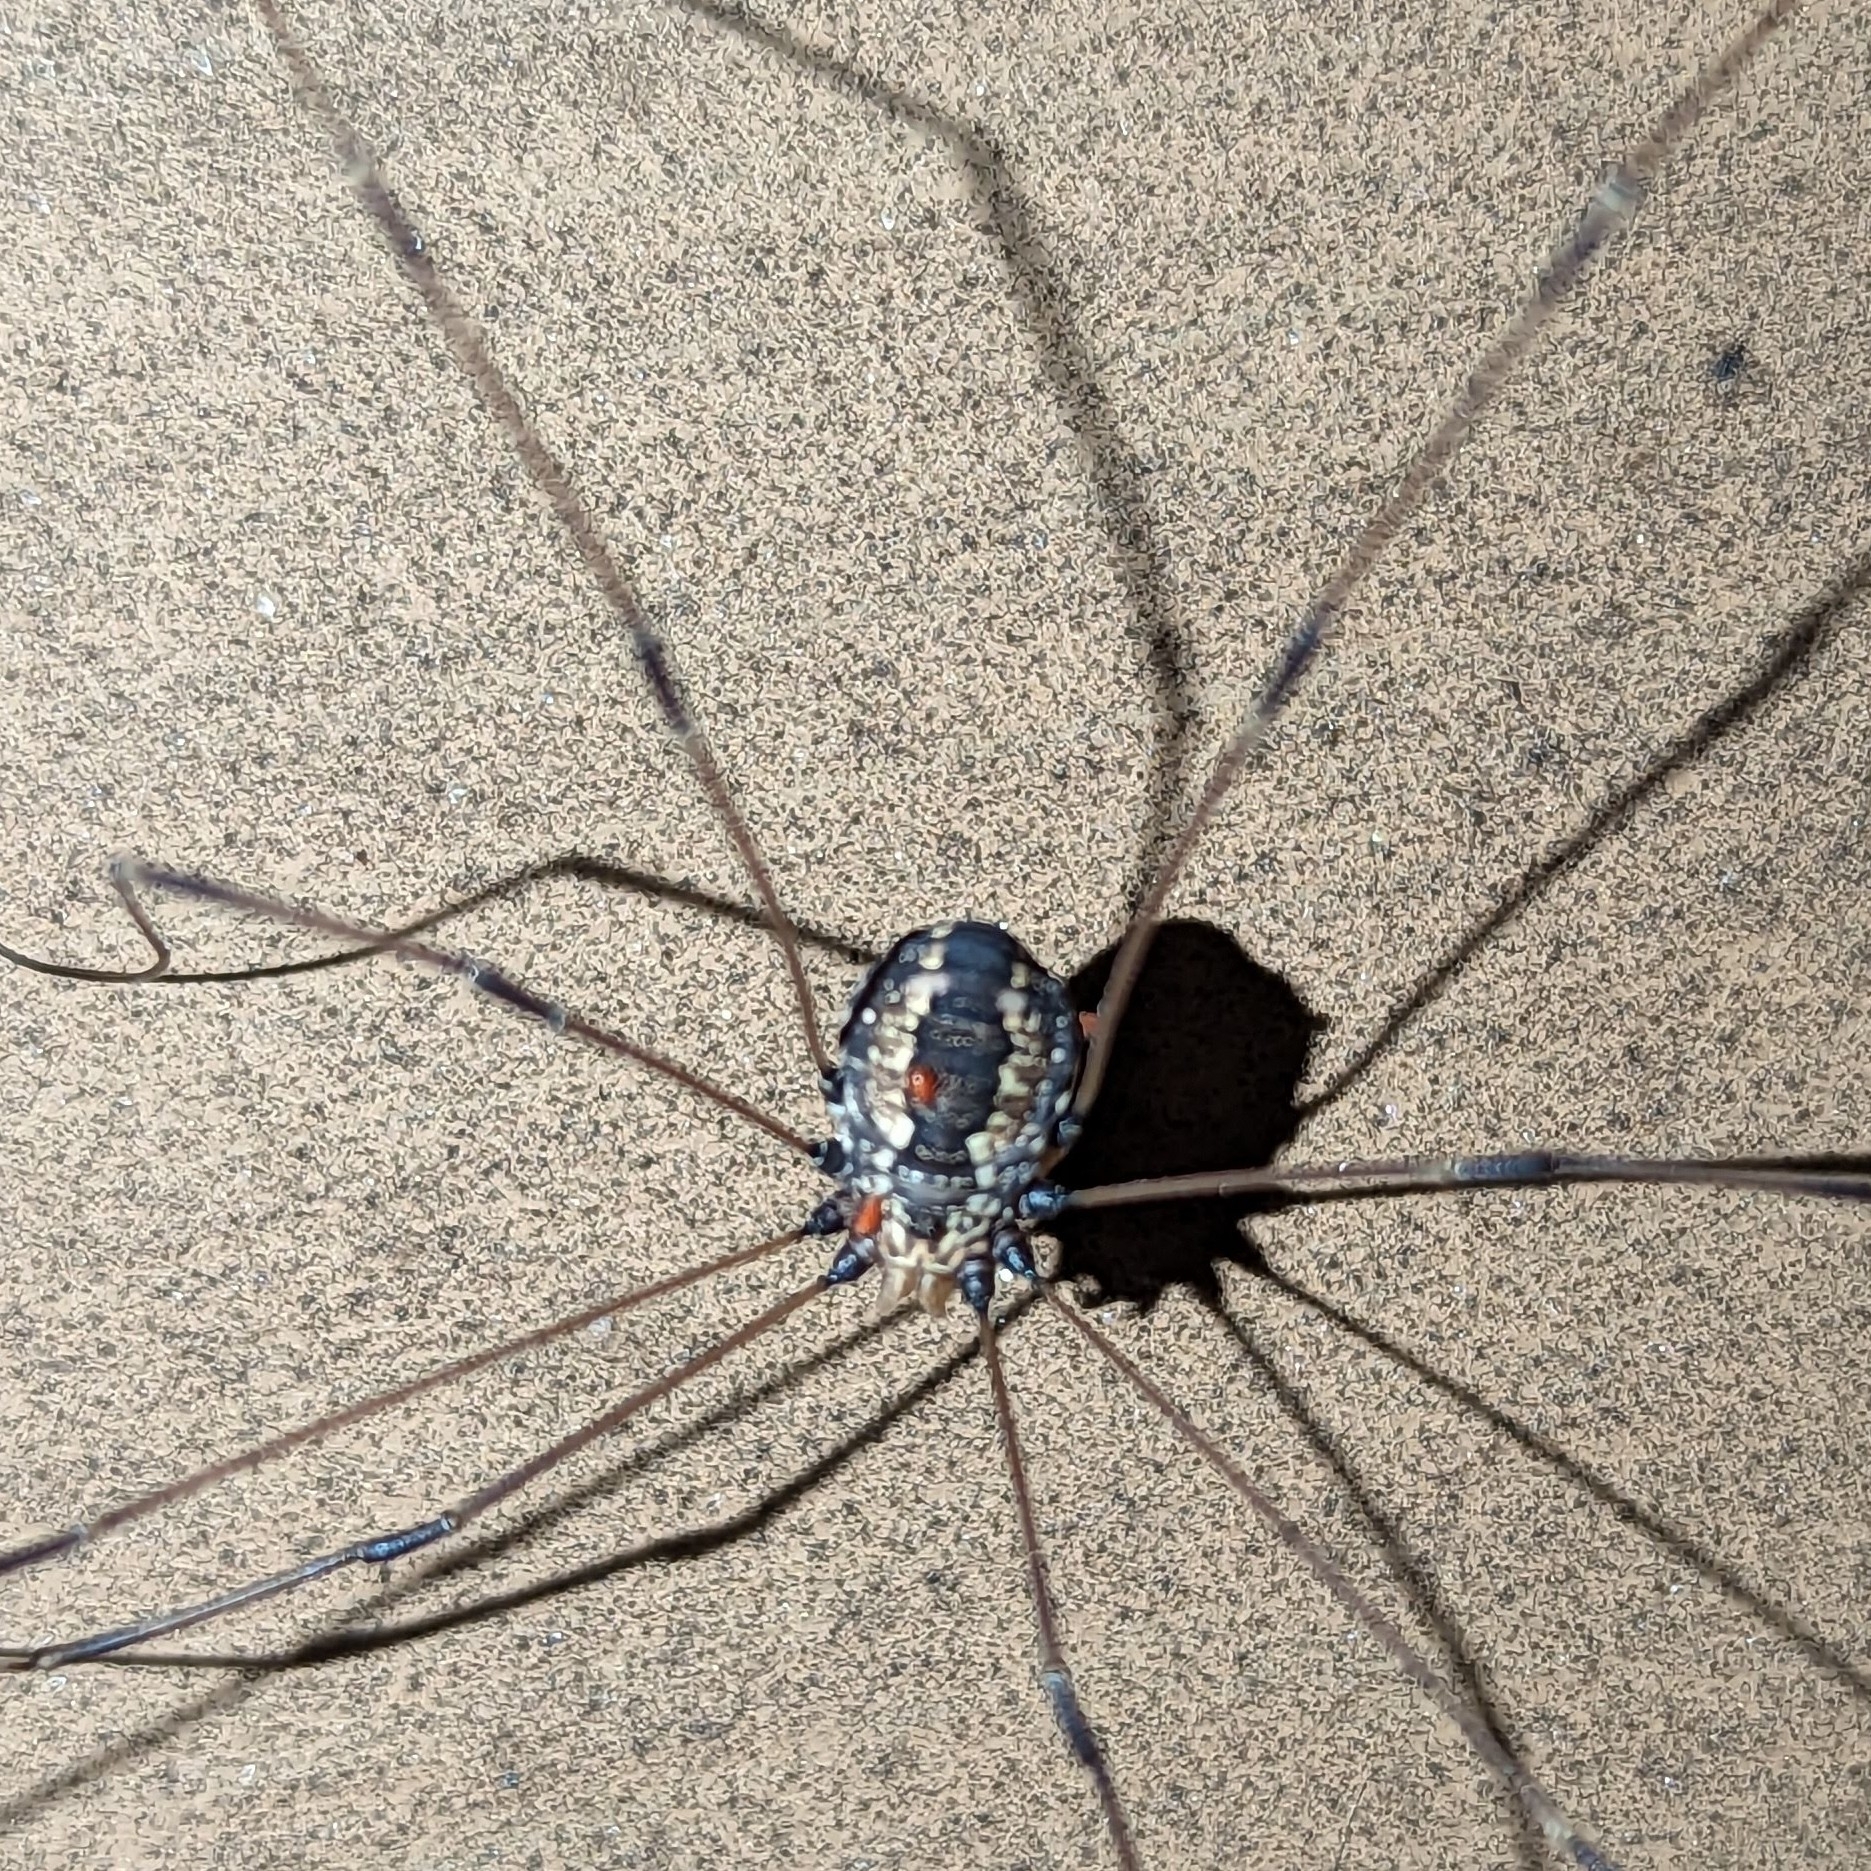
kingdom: Animalia
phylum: Arthropoda
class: Arachnida
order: Opiliones
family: Sclerosomatidae
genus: Leiobunum
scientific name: Leiobunum vittatum
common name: Eastern harvestman
